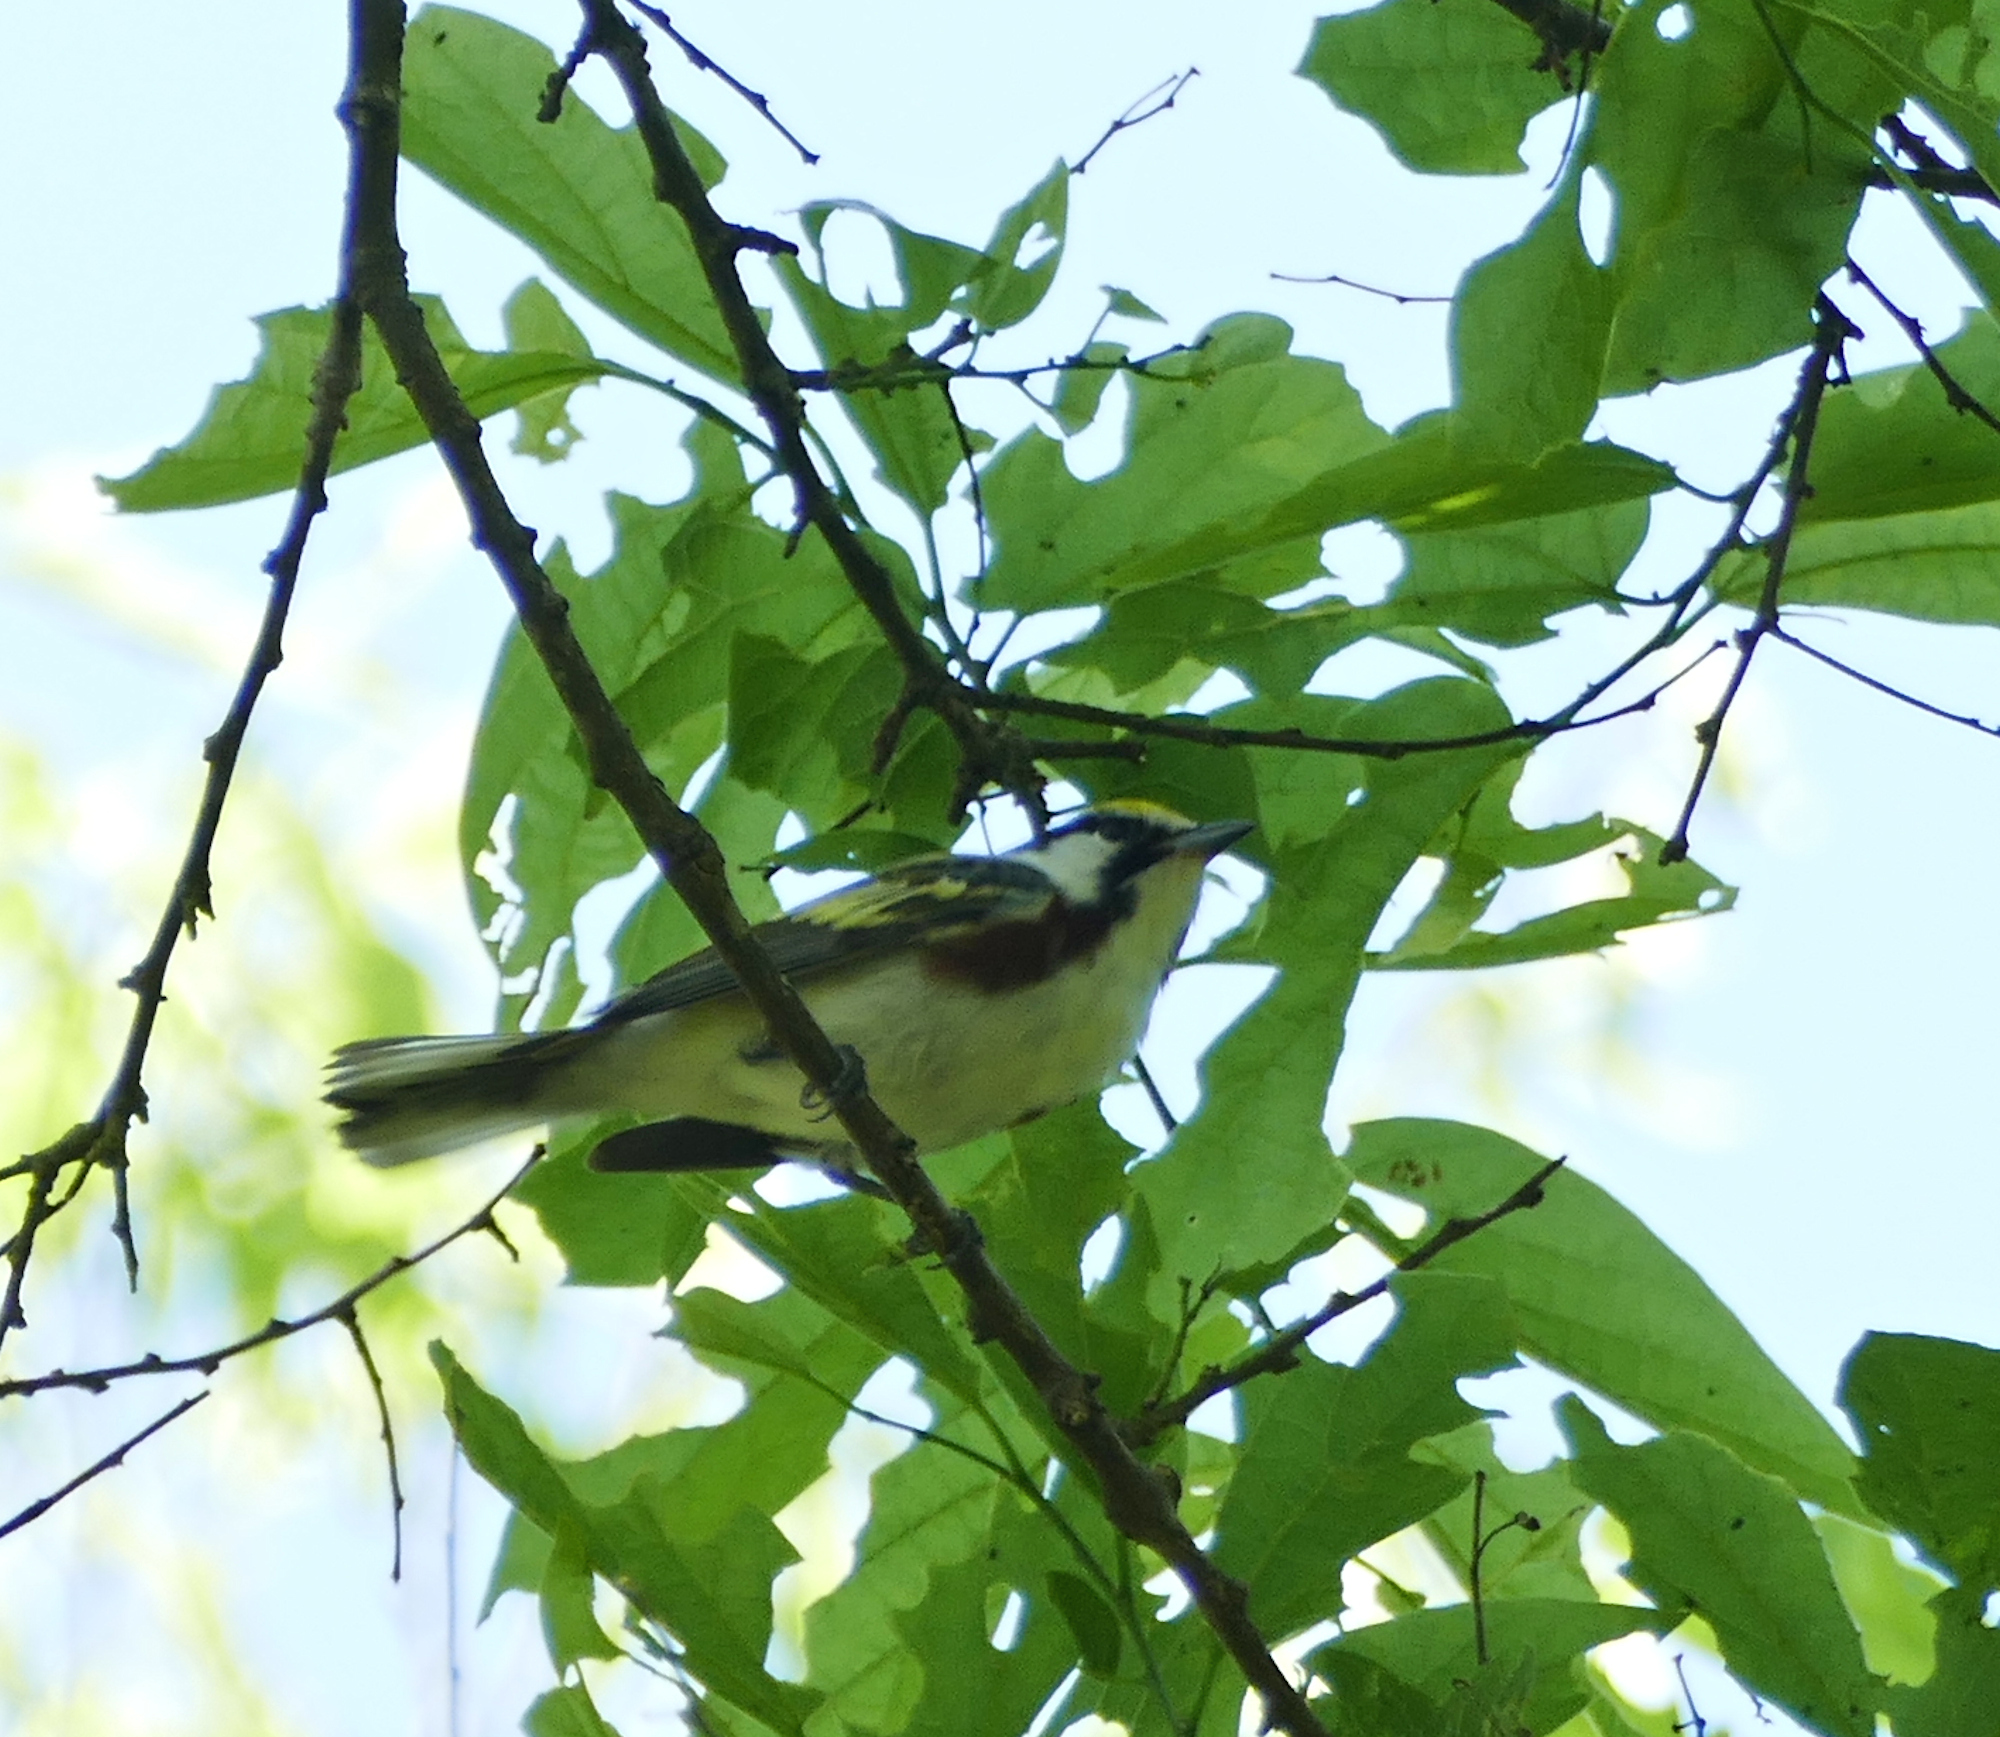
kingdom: Animalia
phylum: Chordata
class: Aves
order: Passeriformes
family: Parulidae
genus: Setophaga
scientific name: Setophaga pensylvanica
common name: Chestnut-sided warbler
